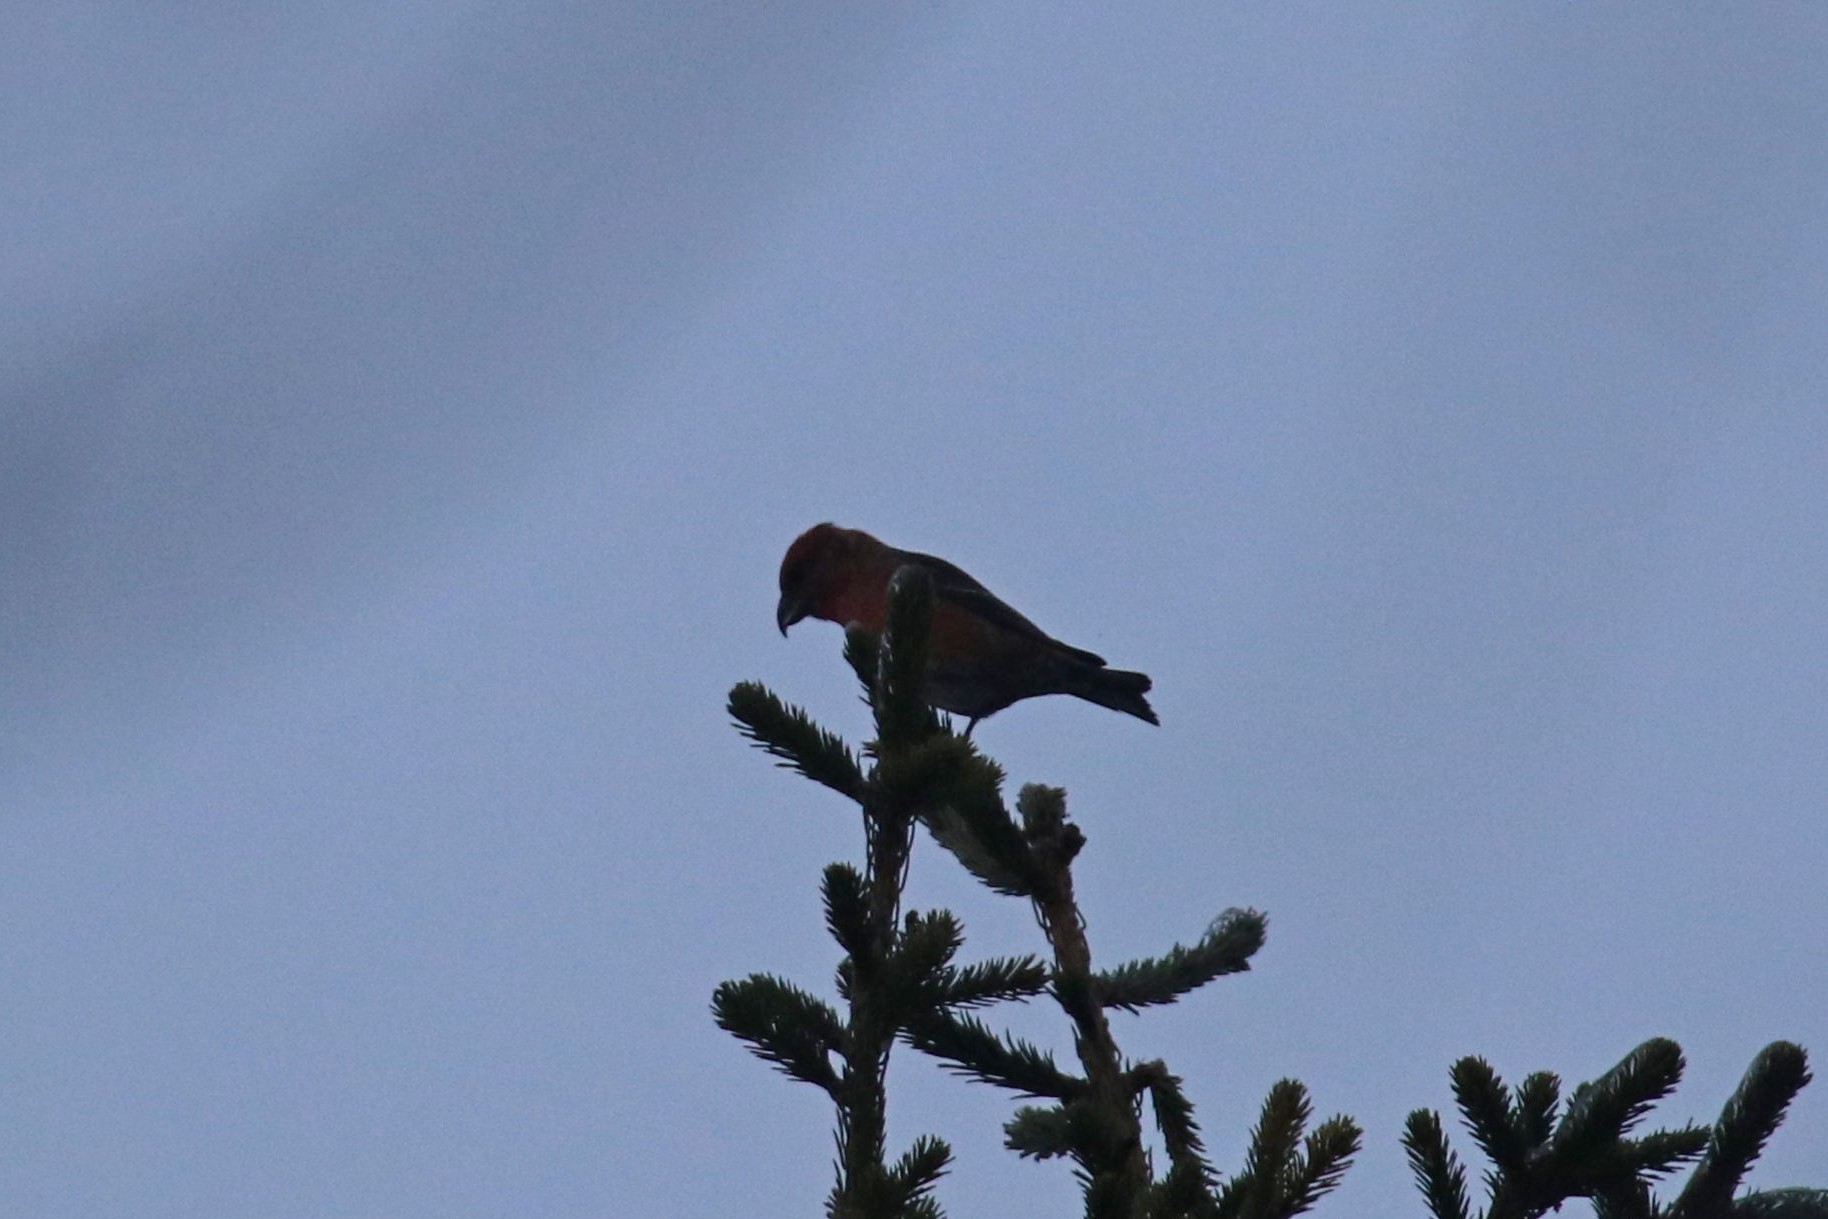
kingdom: Animalia
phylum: Chordata
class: Aves
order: Passeriformes
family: Fringillidae
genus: Loxia
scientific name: Loxia curvirostra
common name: Red crossbill
